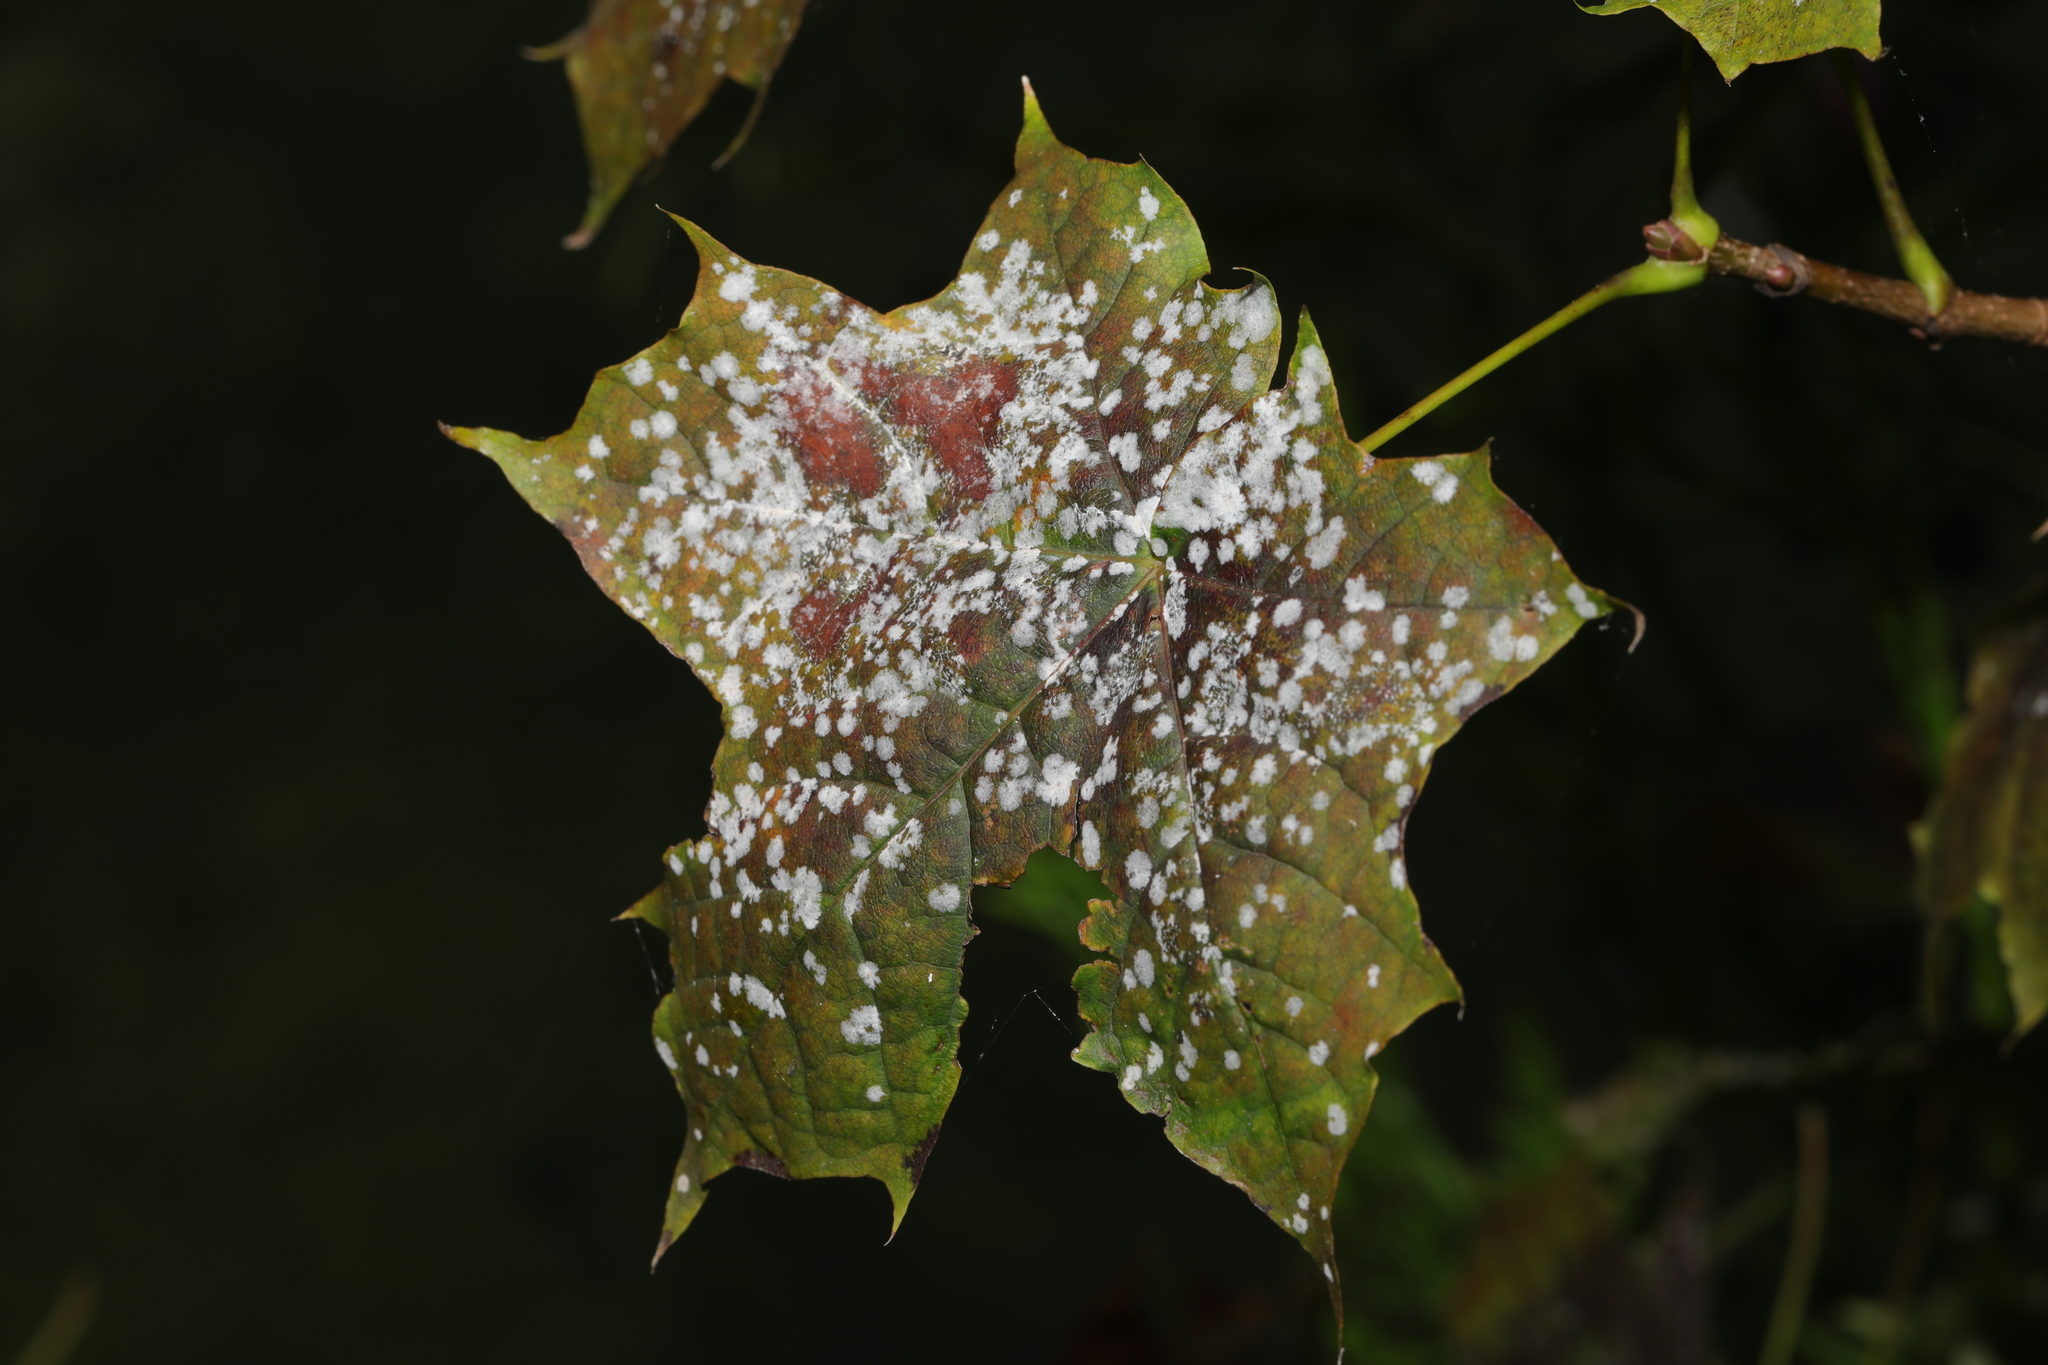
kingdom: Fungi
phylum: Ascomycota
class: Leotiomycetes
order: Helotiales
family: Erysiphaceae
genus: Sawadaea
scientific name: Sawadaea tulasnei
